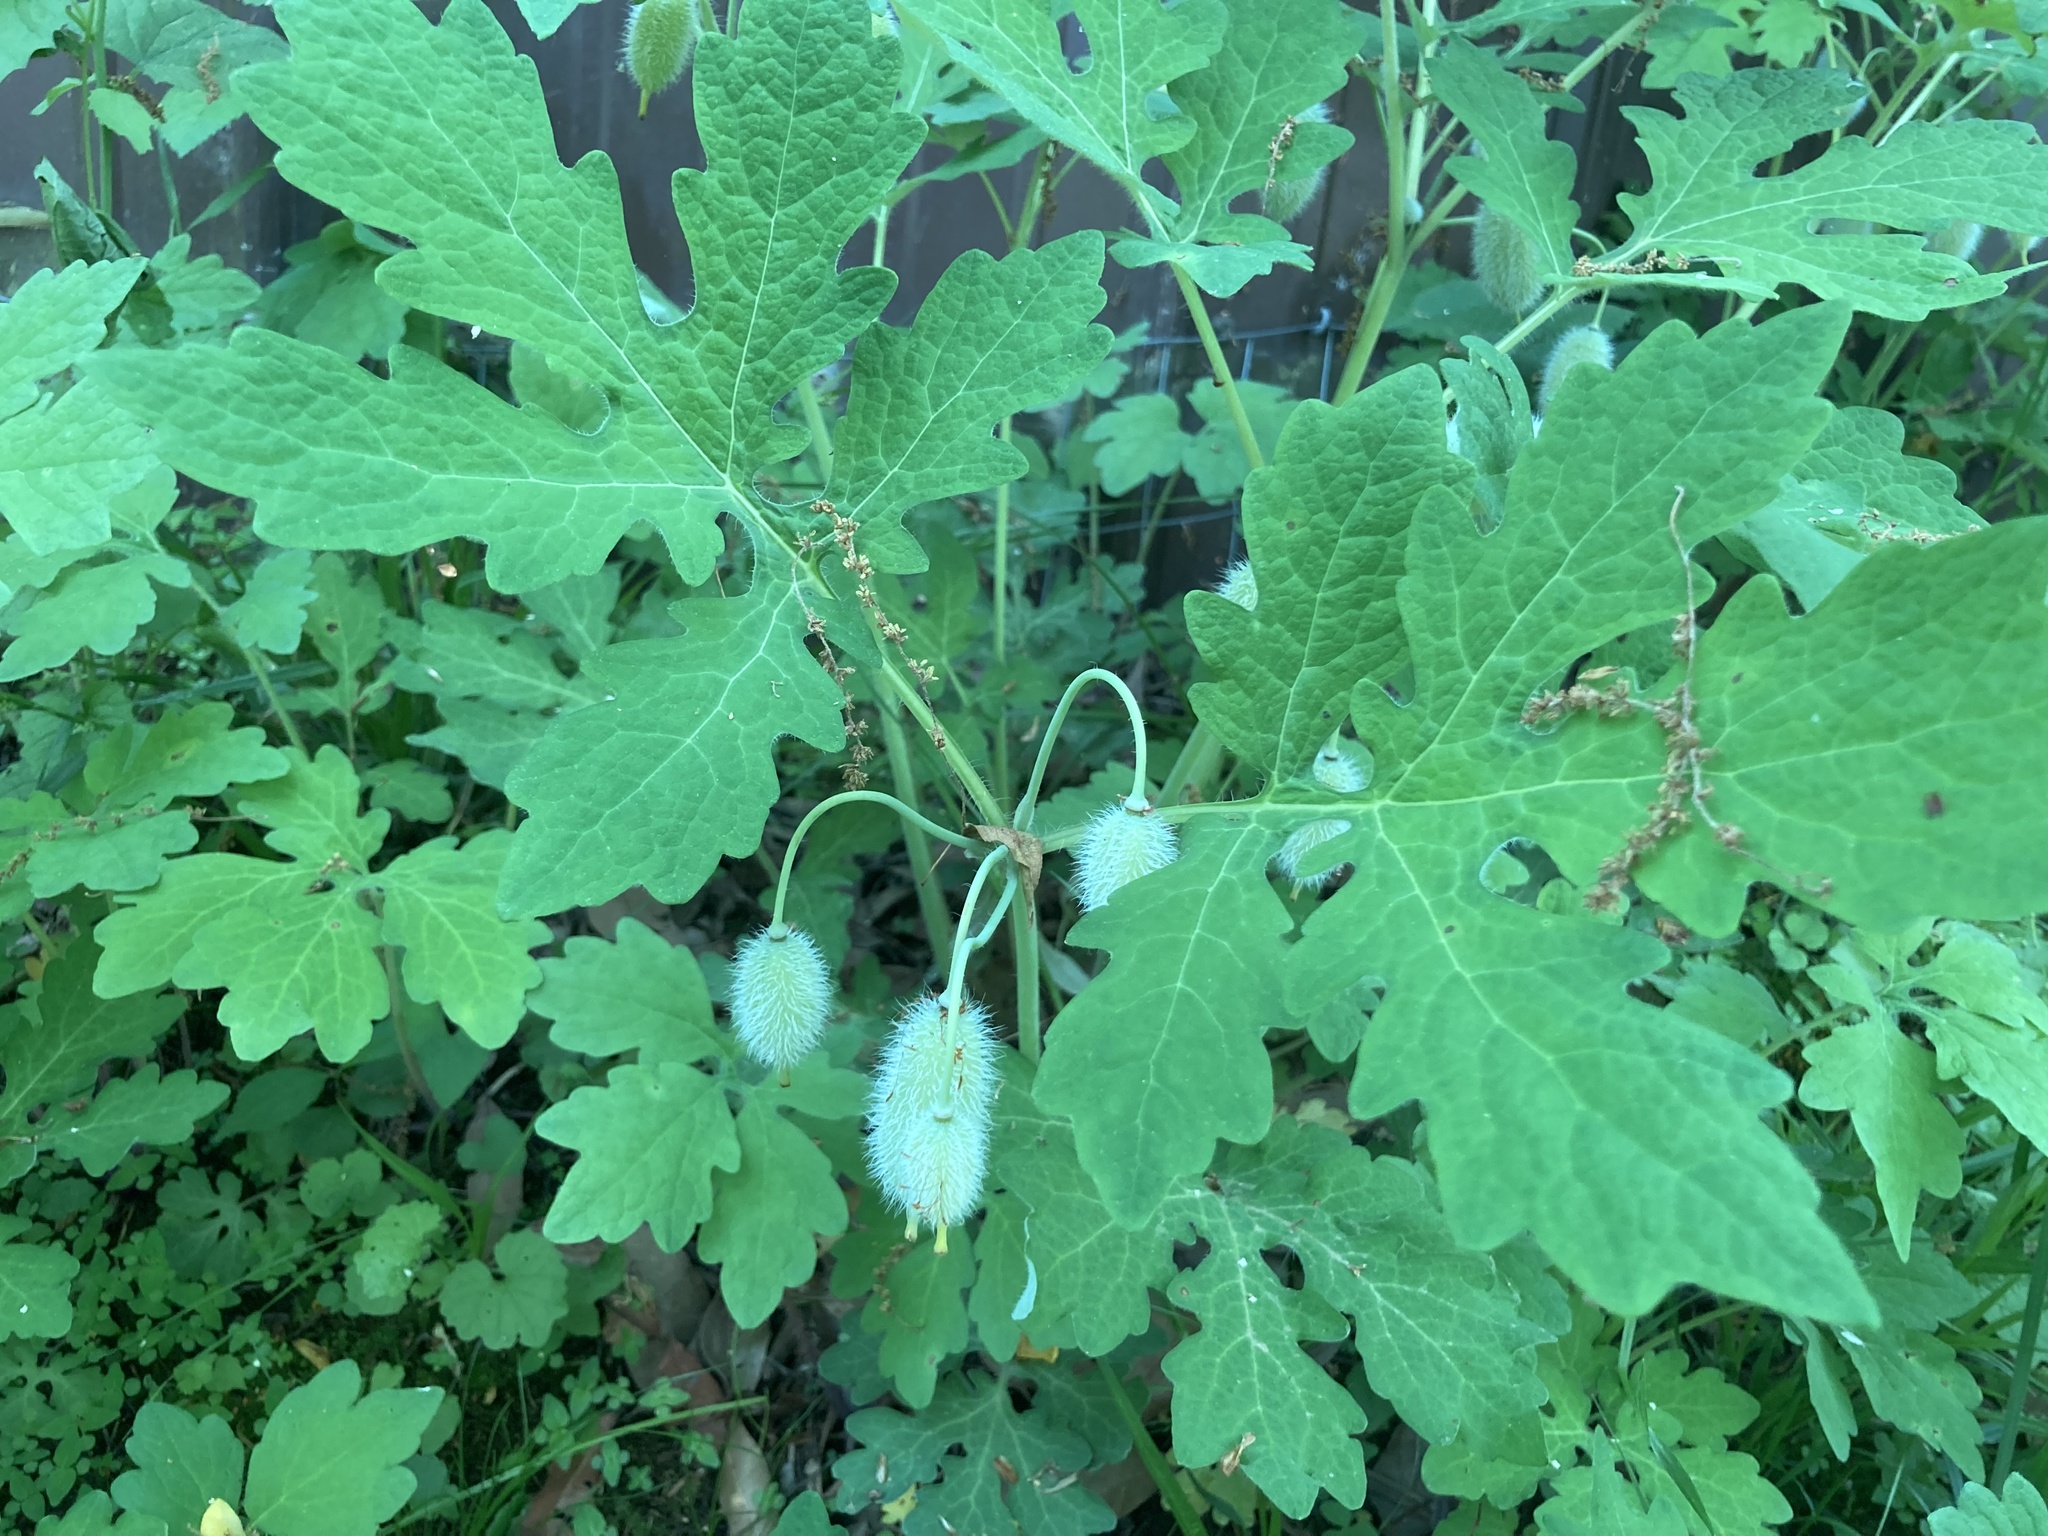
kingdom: Plantae
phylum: Tracheophyta
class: Magnoliopsida
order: Ranunculales
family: Papaveraceae
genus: Stylophorum
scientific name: Stylophorum diphyllum
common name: Celandine poppy
